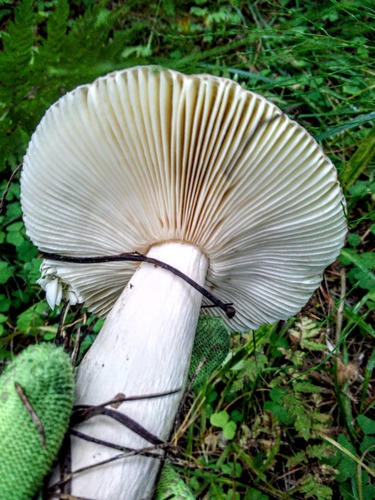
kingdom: Fungi
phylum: Basidiomycota
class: Agaricomycetes
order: Russulales
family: Russulaceae
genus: Russula
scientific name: Russula
